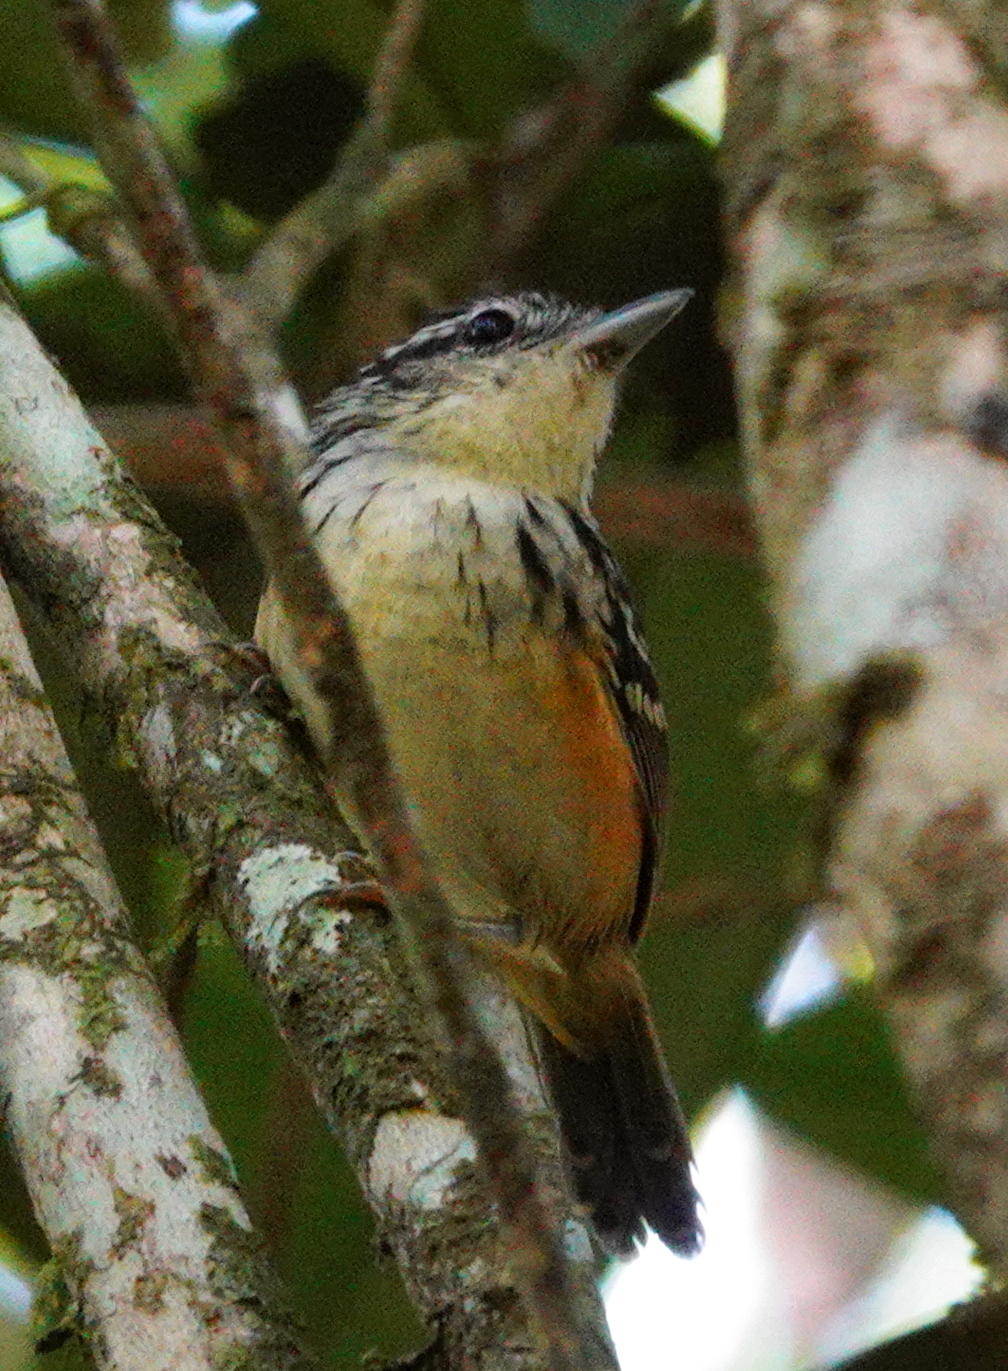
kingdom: Animalia
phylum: Chordata
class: Aves
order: Passeriformes
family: Thamnophilidae
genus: Hypocnemis
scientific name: Hypocnemis flavescens
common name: Imeri warbling-antbird
